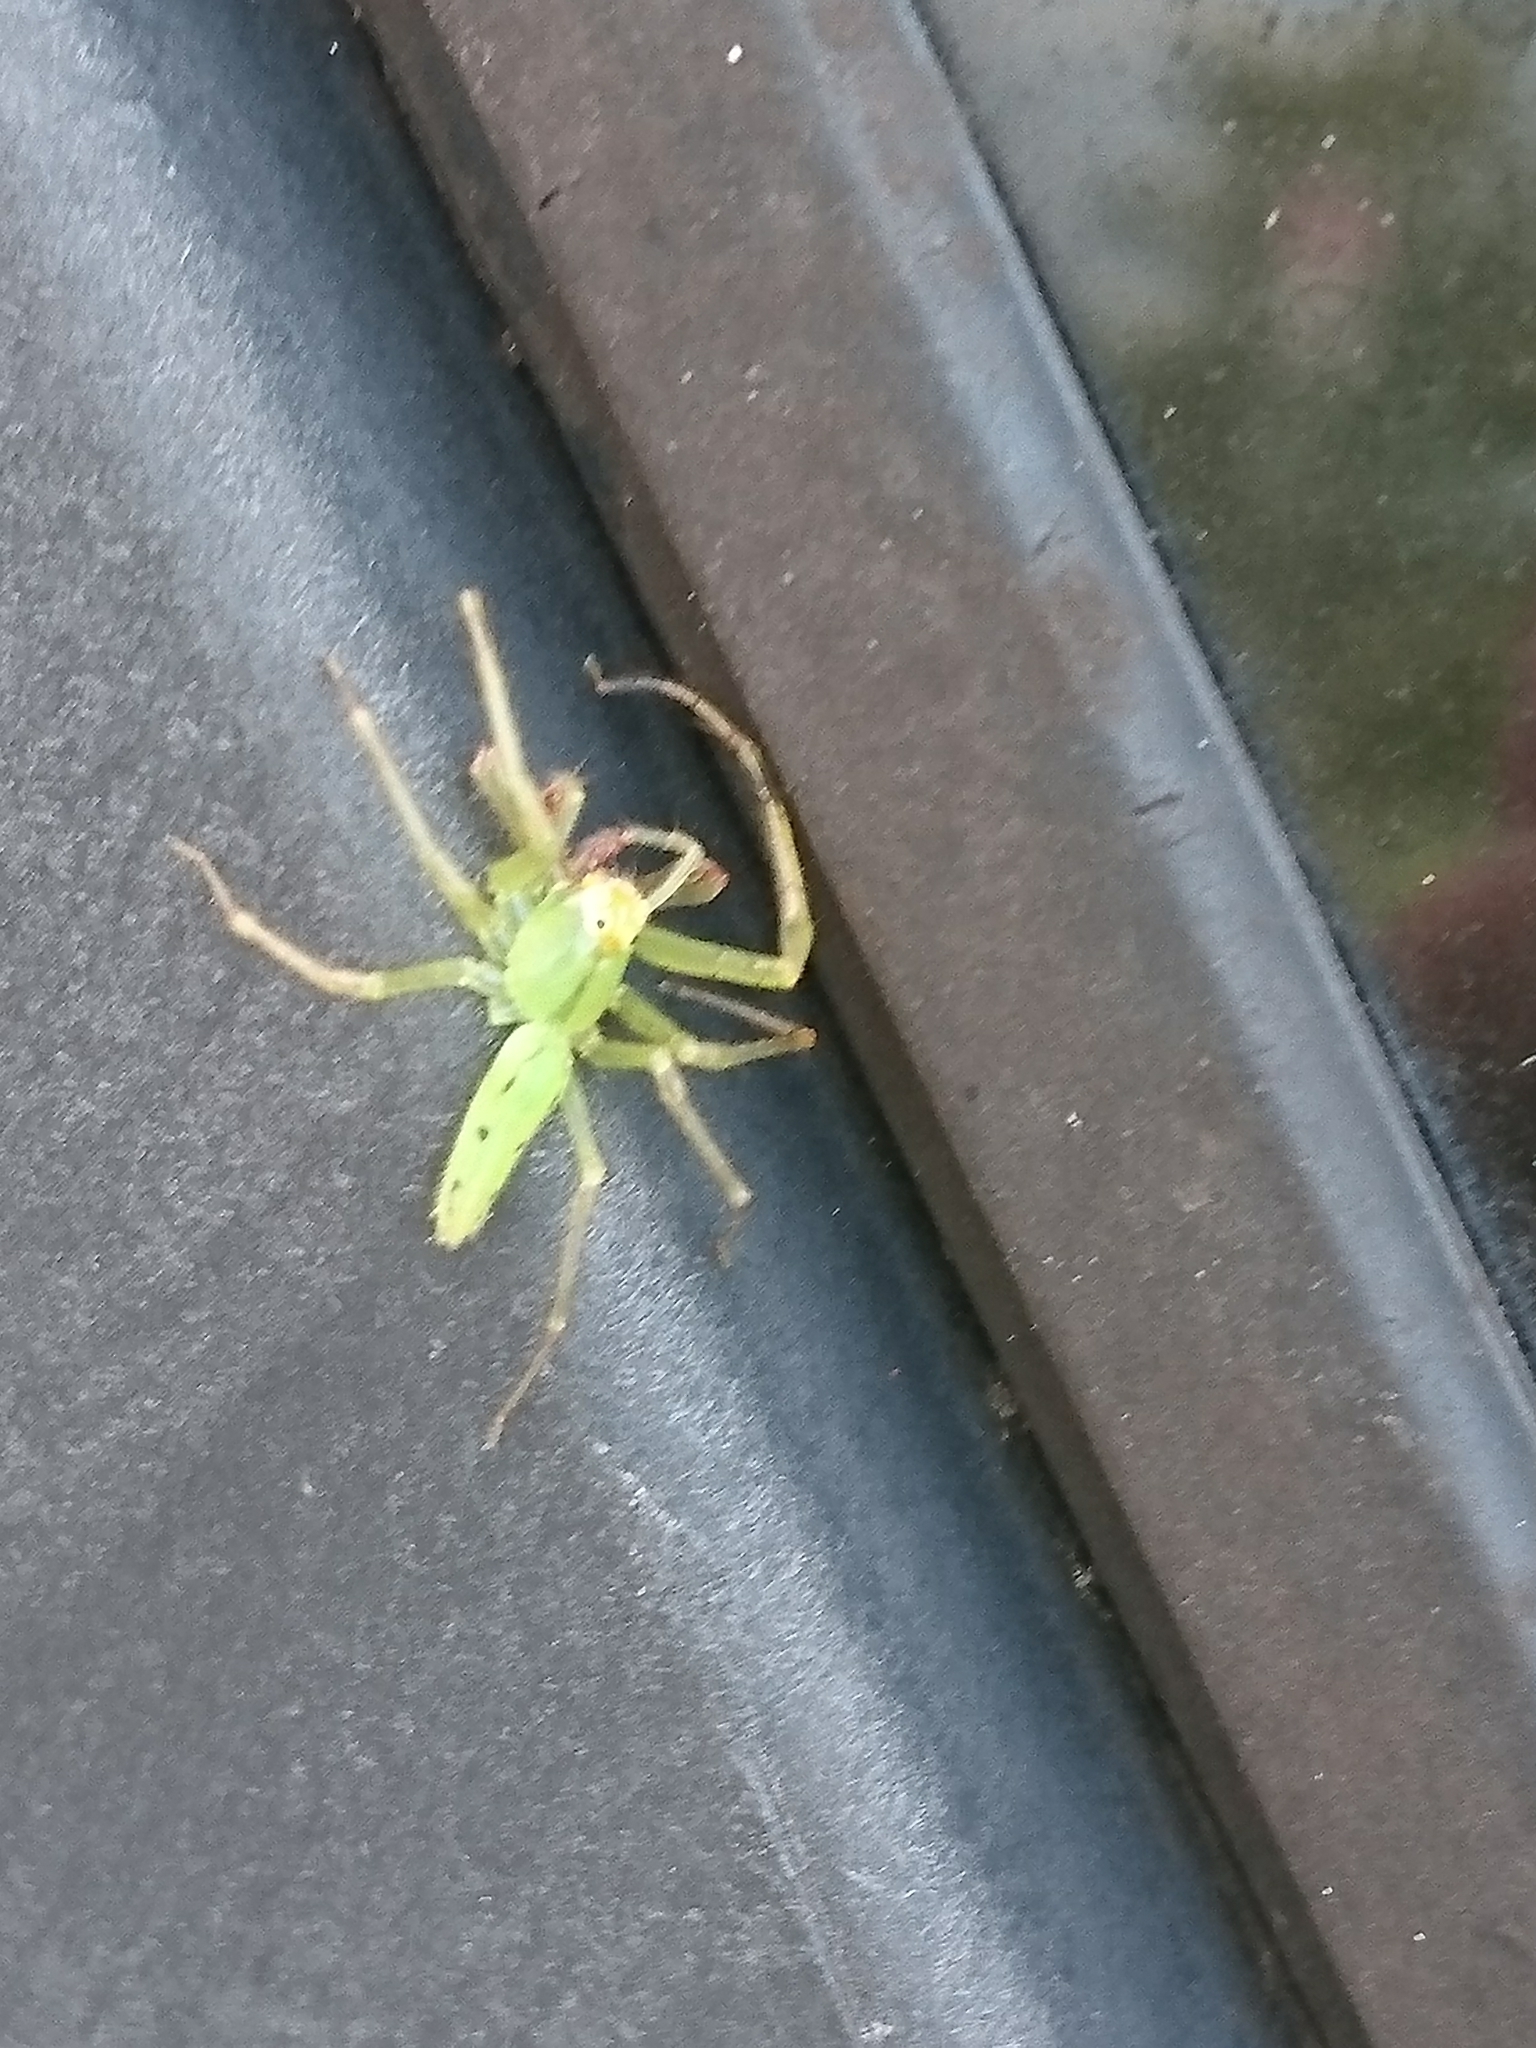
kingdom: Animalia
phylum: Arthropoda
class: Arachnida
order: Araneae
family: Salticidae
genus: Lyssomanes
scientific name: Lyssomanes viridis
